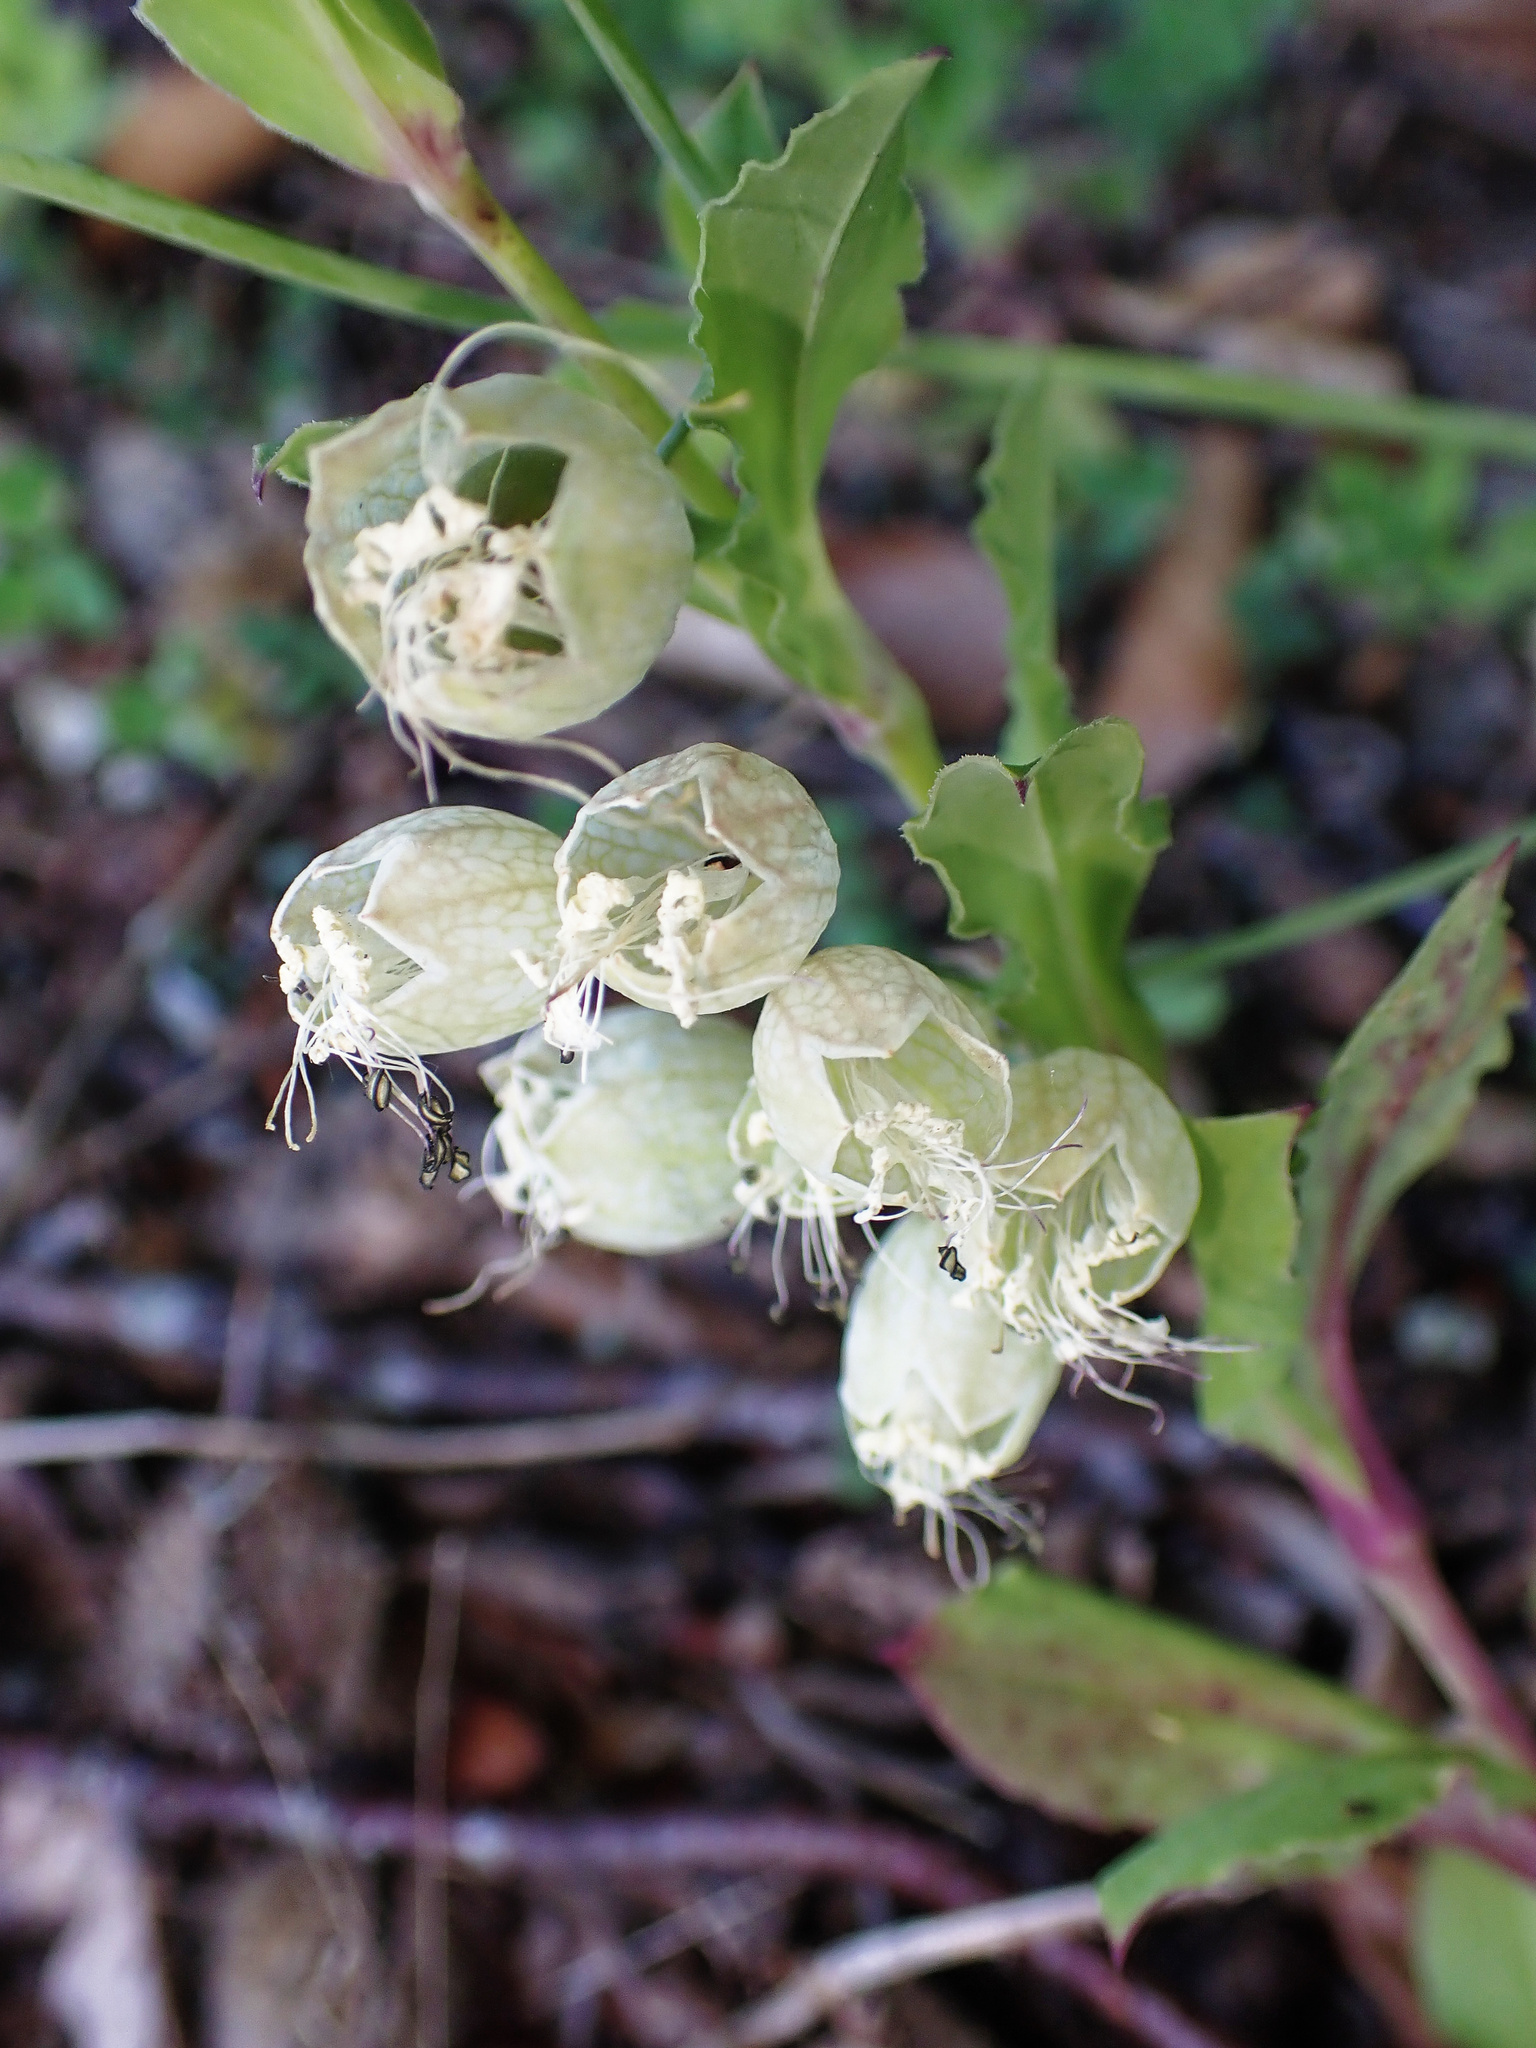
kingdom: Plantae
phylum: Tracheophyta
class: Magnoliopsida
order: Caryophyllales
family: Caryophyllaceae
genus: Silene
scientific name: Silene vulgaris
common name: Bladder campion
